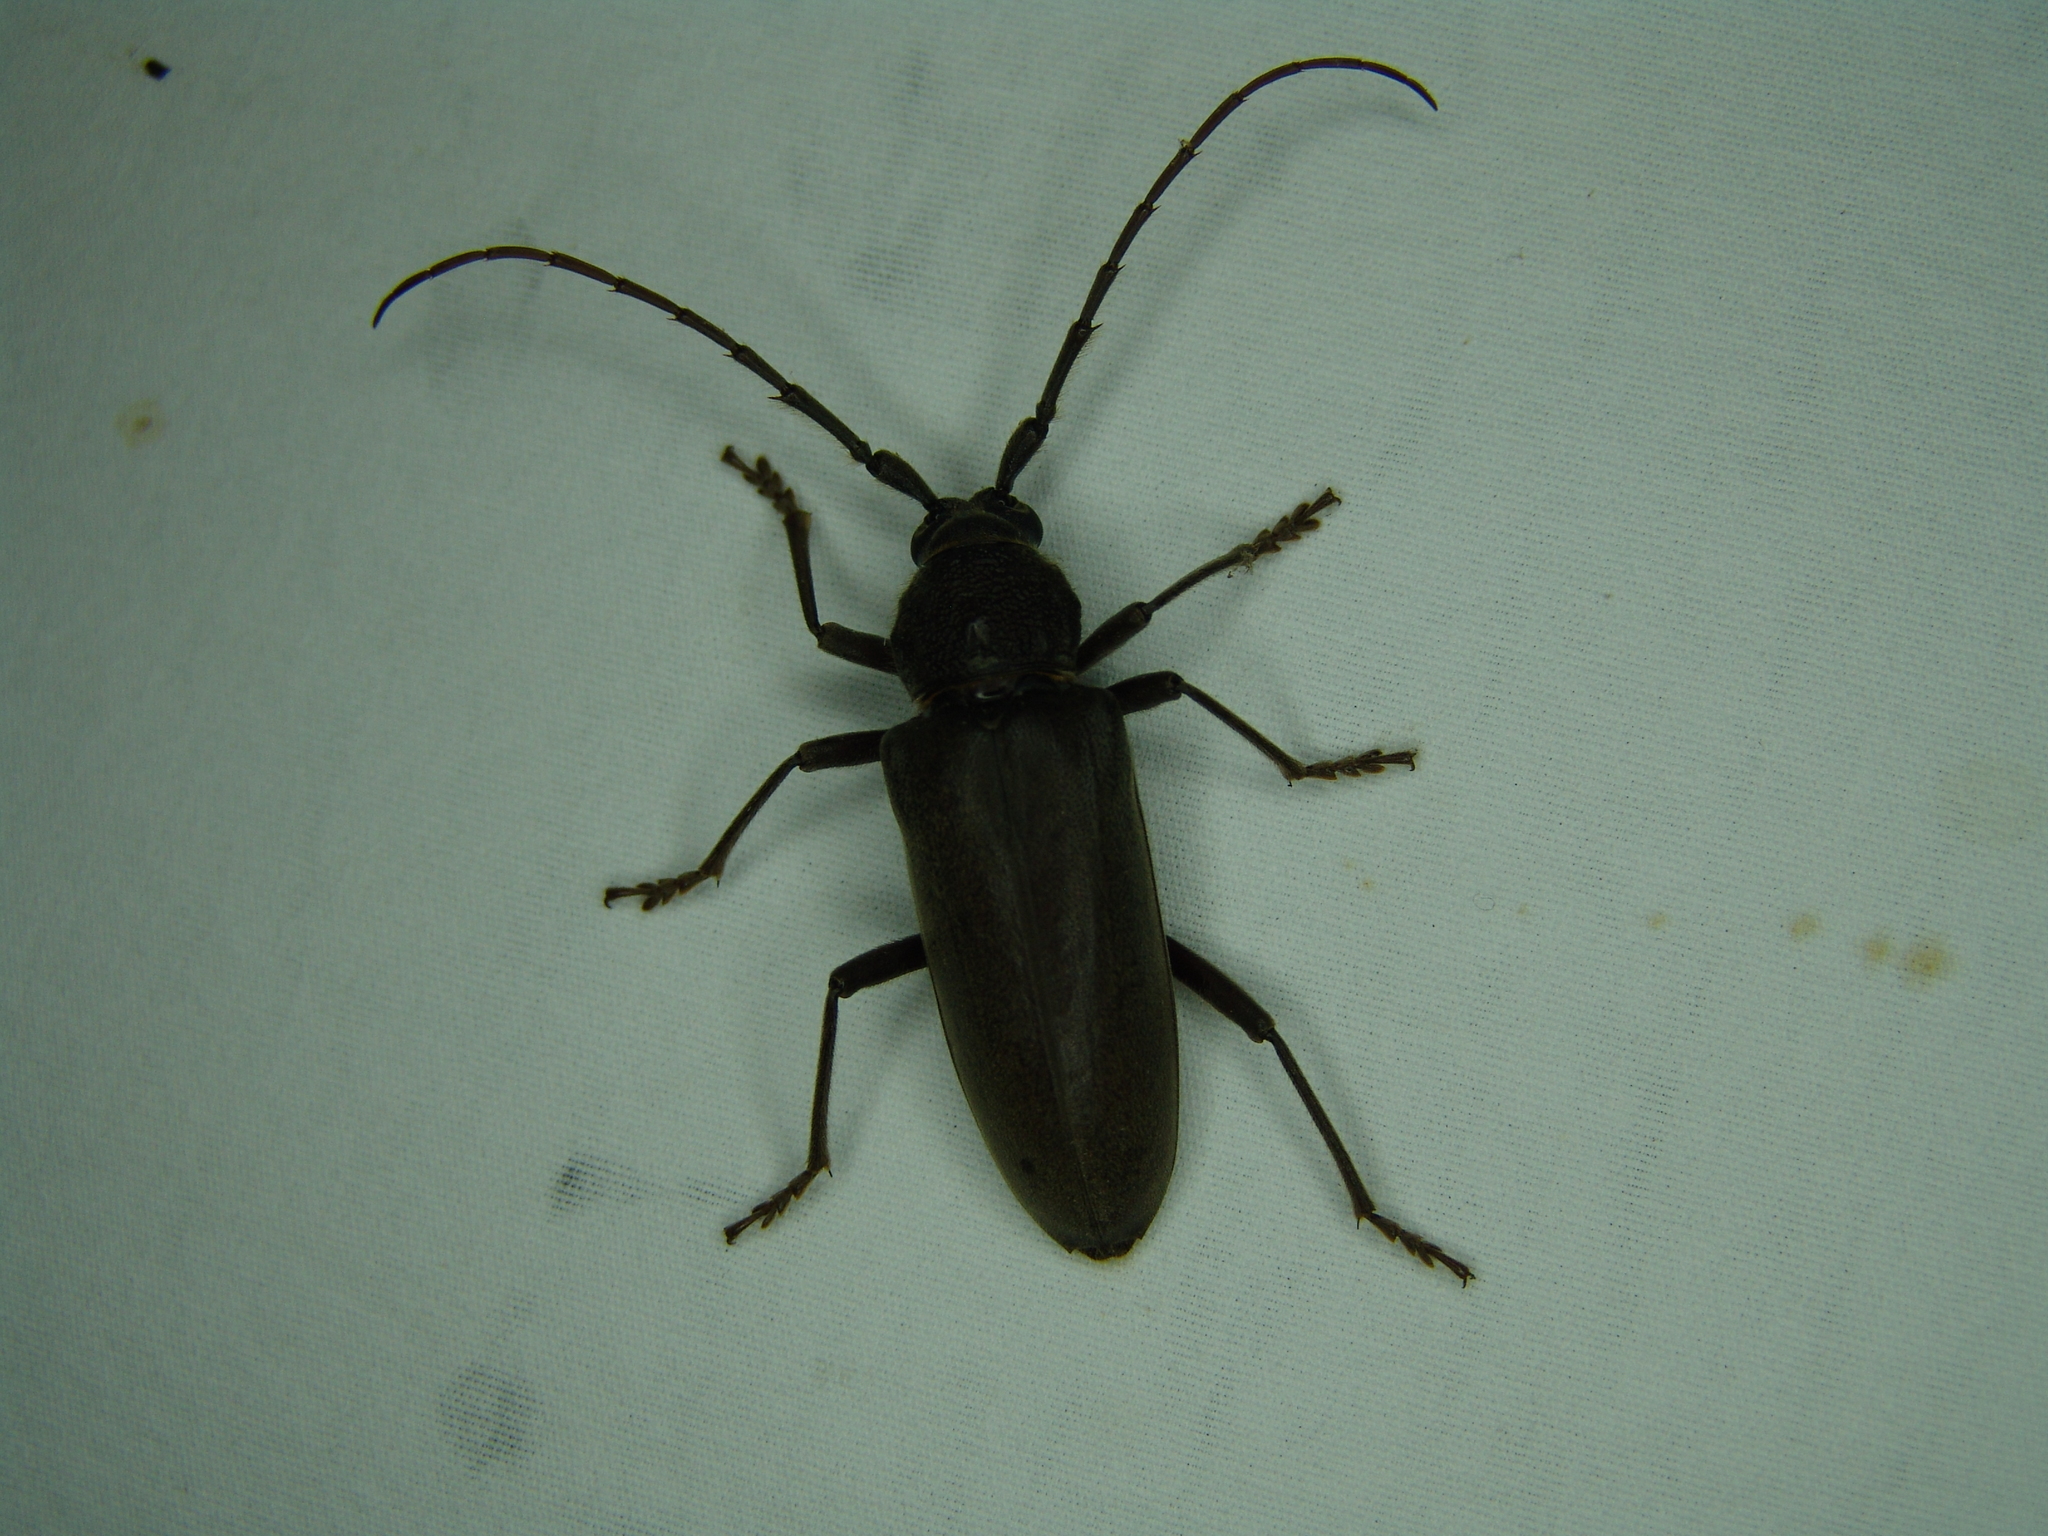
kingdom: Animalia
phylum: Arthropoda
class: Insecta
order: Coleoptera
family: Cerambycidae
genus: Enaphalodes
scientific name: Enaphalodes hispicornis
